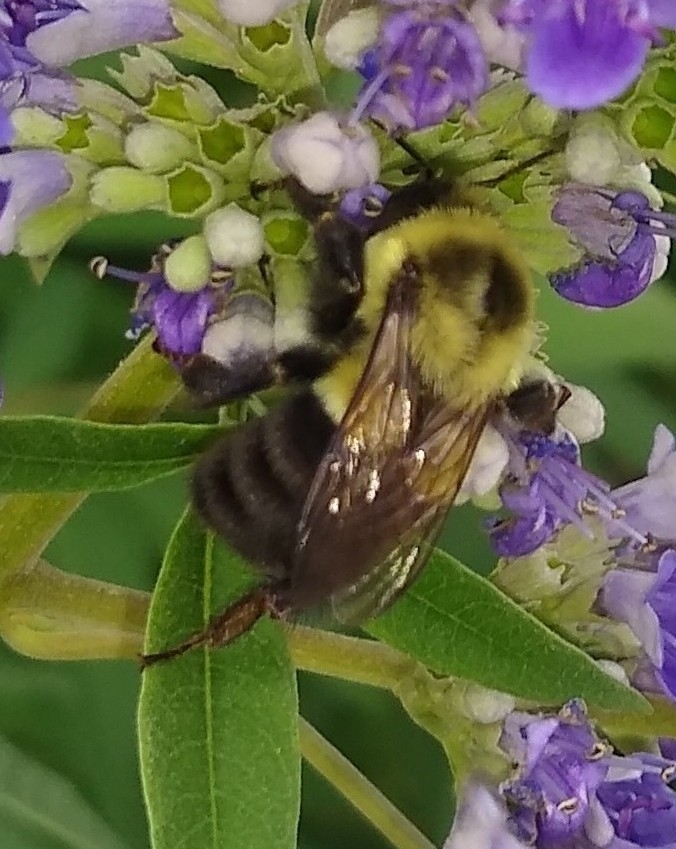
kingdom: Animalia
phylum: Arthropoda
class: Insecta
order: Hymenoptera
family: Apidae
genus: Bombus
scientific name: Bombus impatiens
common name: Common eastern bumble bee
